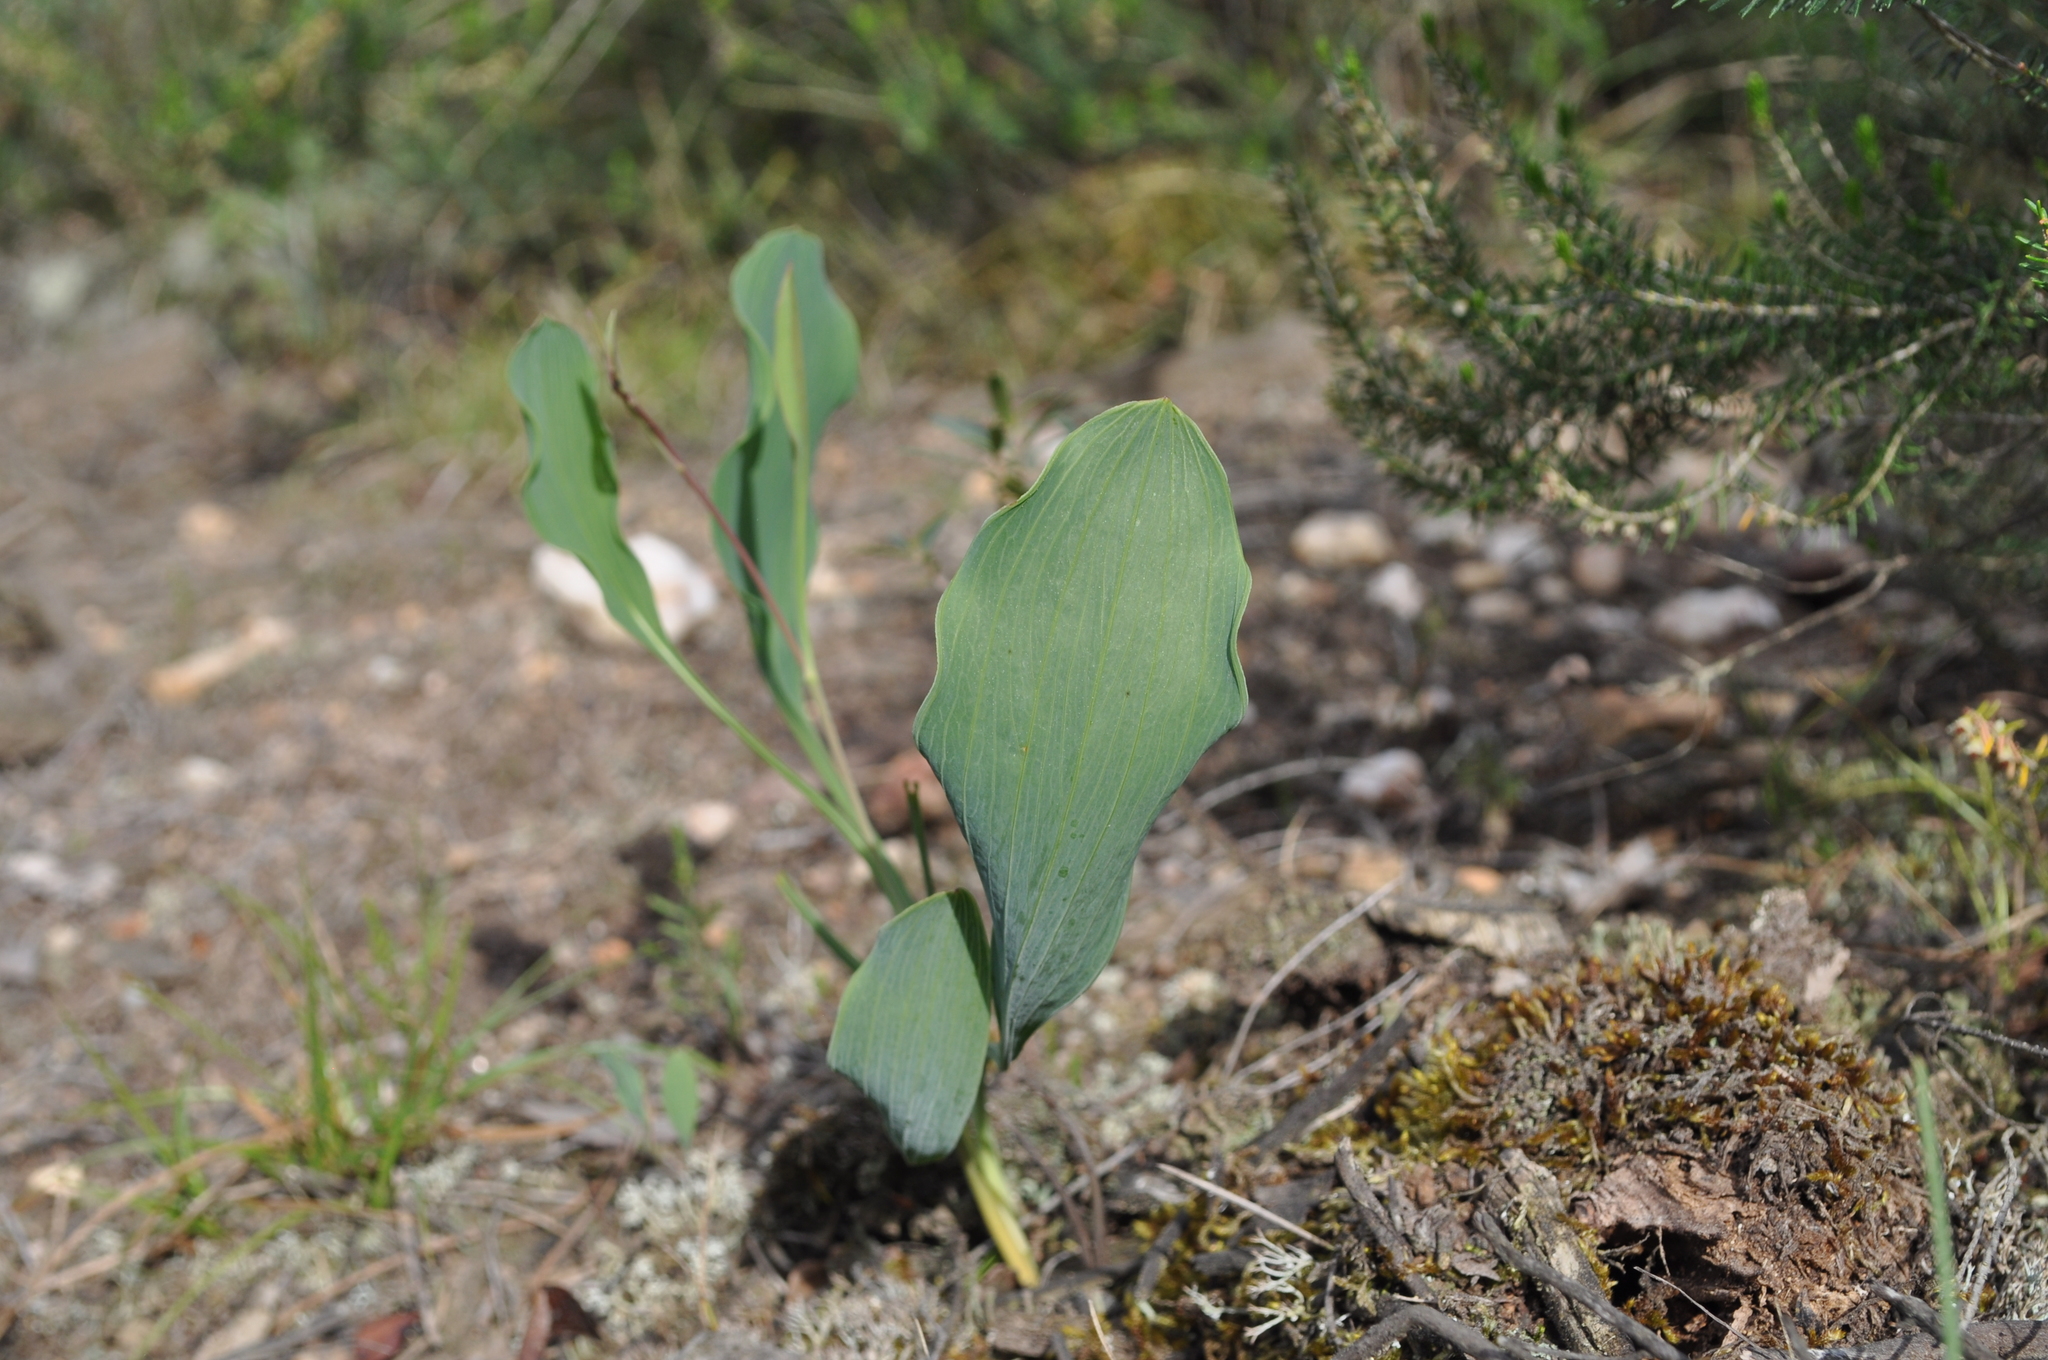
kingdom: Plantae
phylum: Tracheophyta
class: Magnoliopsida
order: Apiales
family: Apiaceae
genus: Bupleurum
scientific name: Bupleurum rigidum
